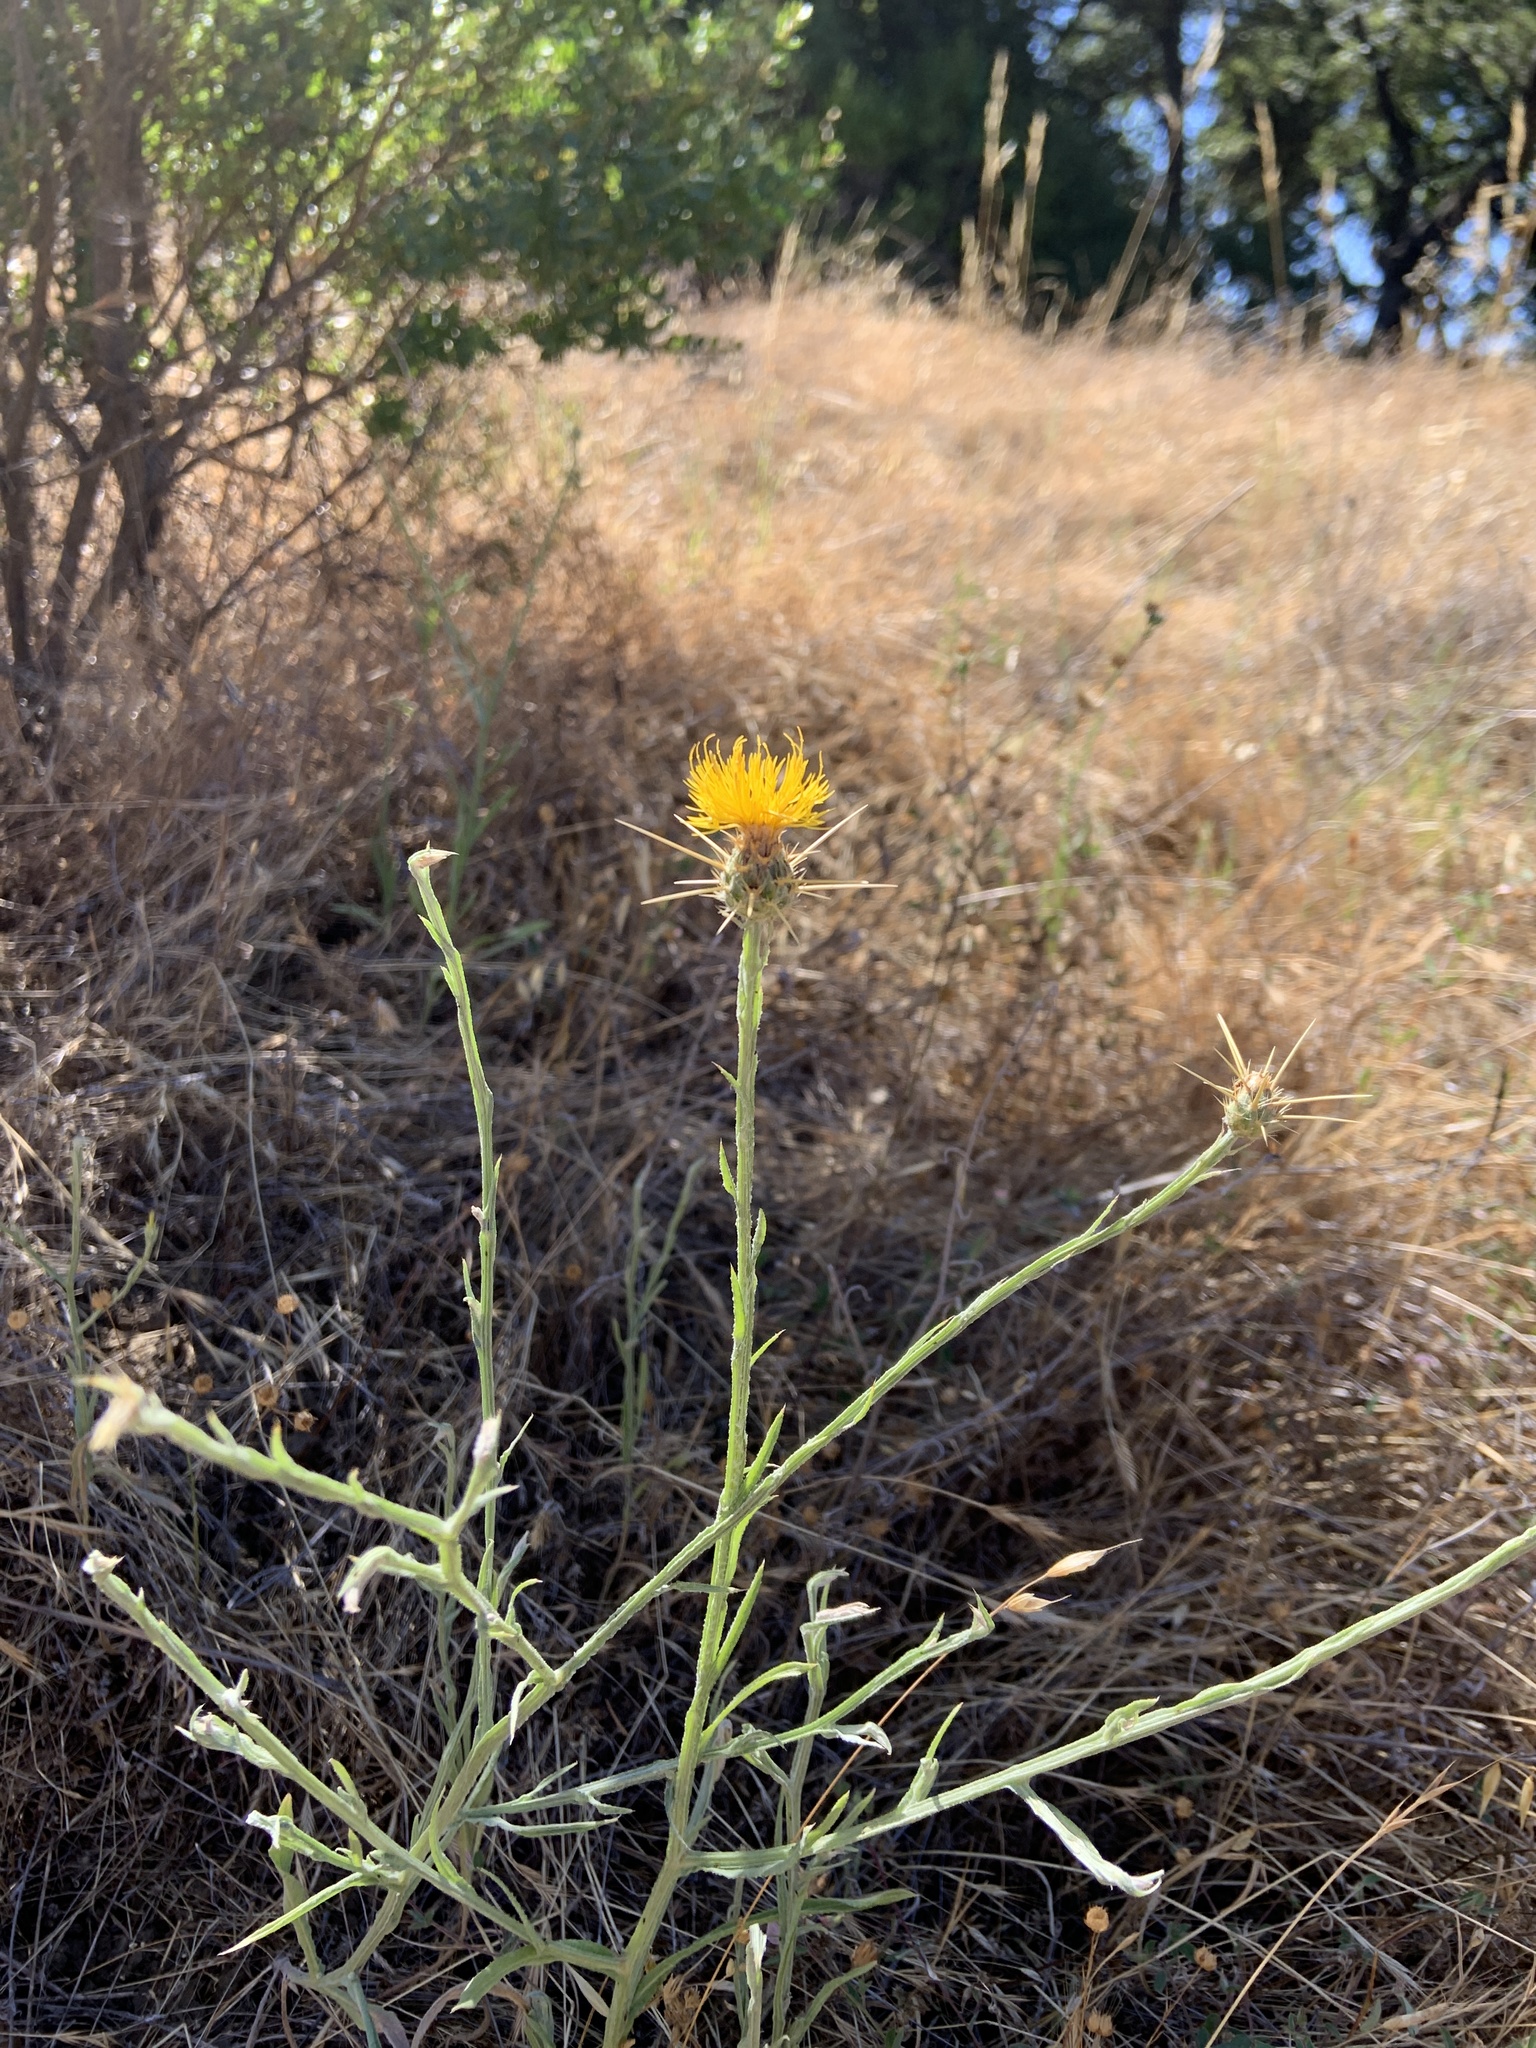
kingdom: Plantae
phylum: Tracheophyta
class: Magnoliopsida
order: Asterales
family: Asteraceae
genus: Centaurea
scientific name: Centaurea solstitialis
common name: Yellow star-thistle
